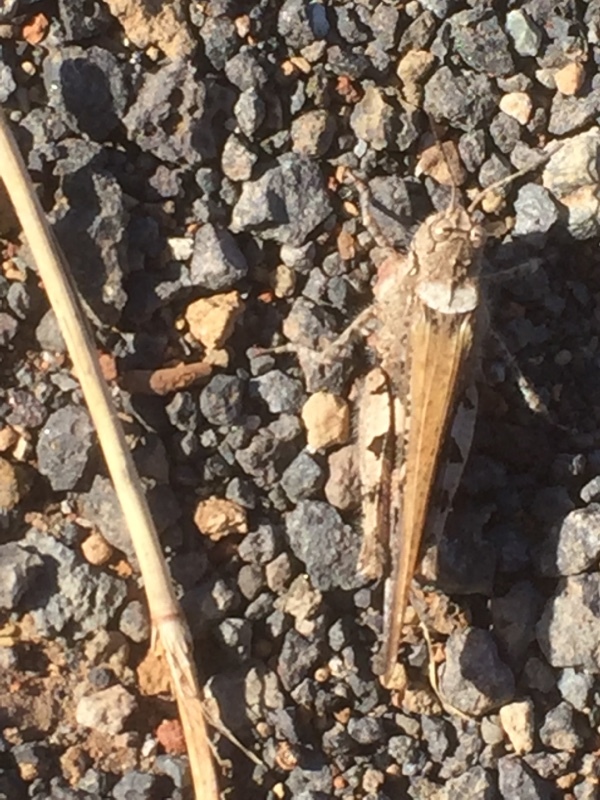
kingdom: Animalia
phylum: Arthropoda
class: Insecta
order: Orthoptera
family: Acrididae
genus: Acrotylus
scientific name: Acrotylus insubricus
